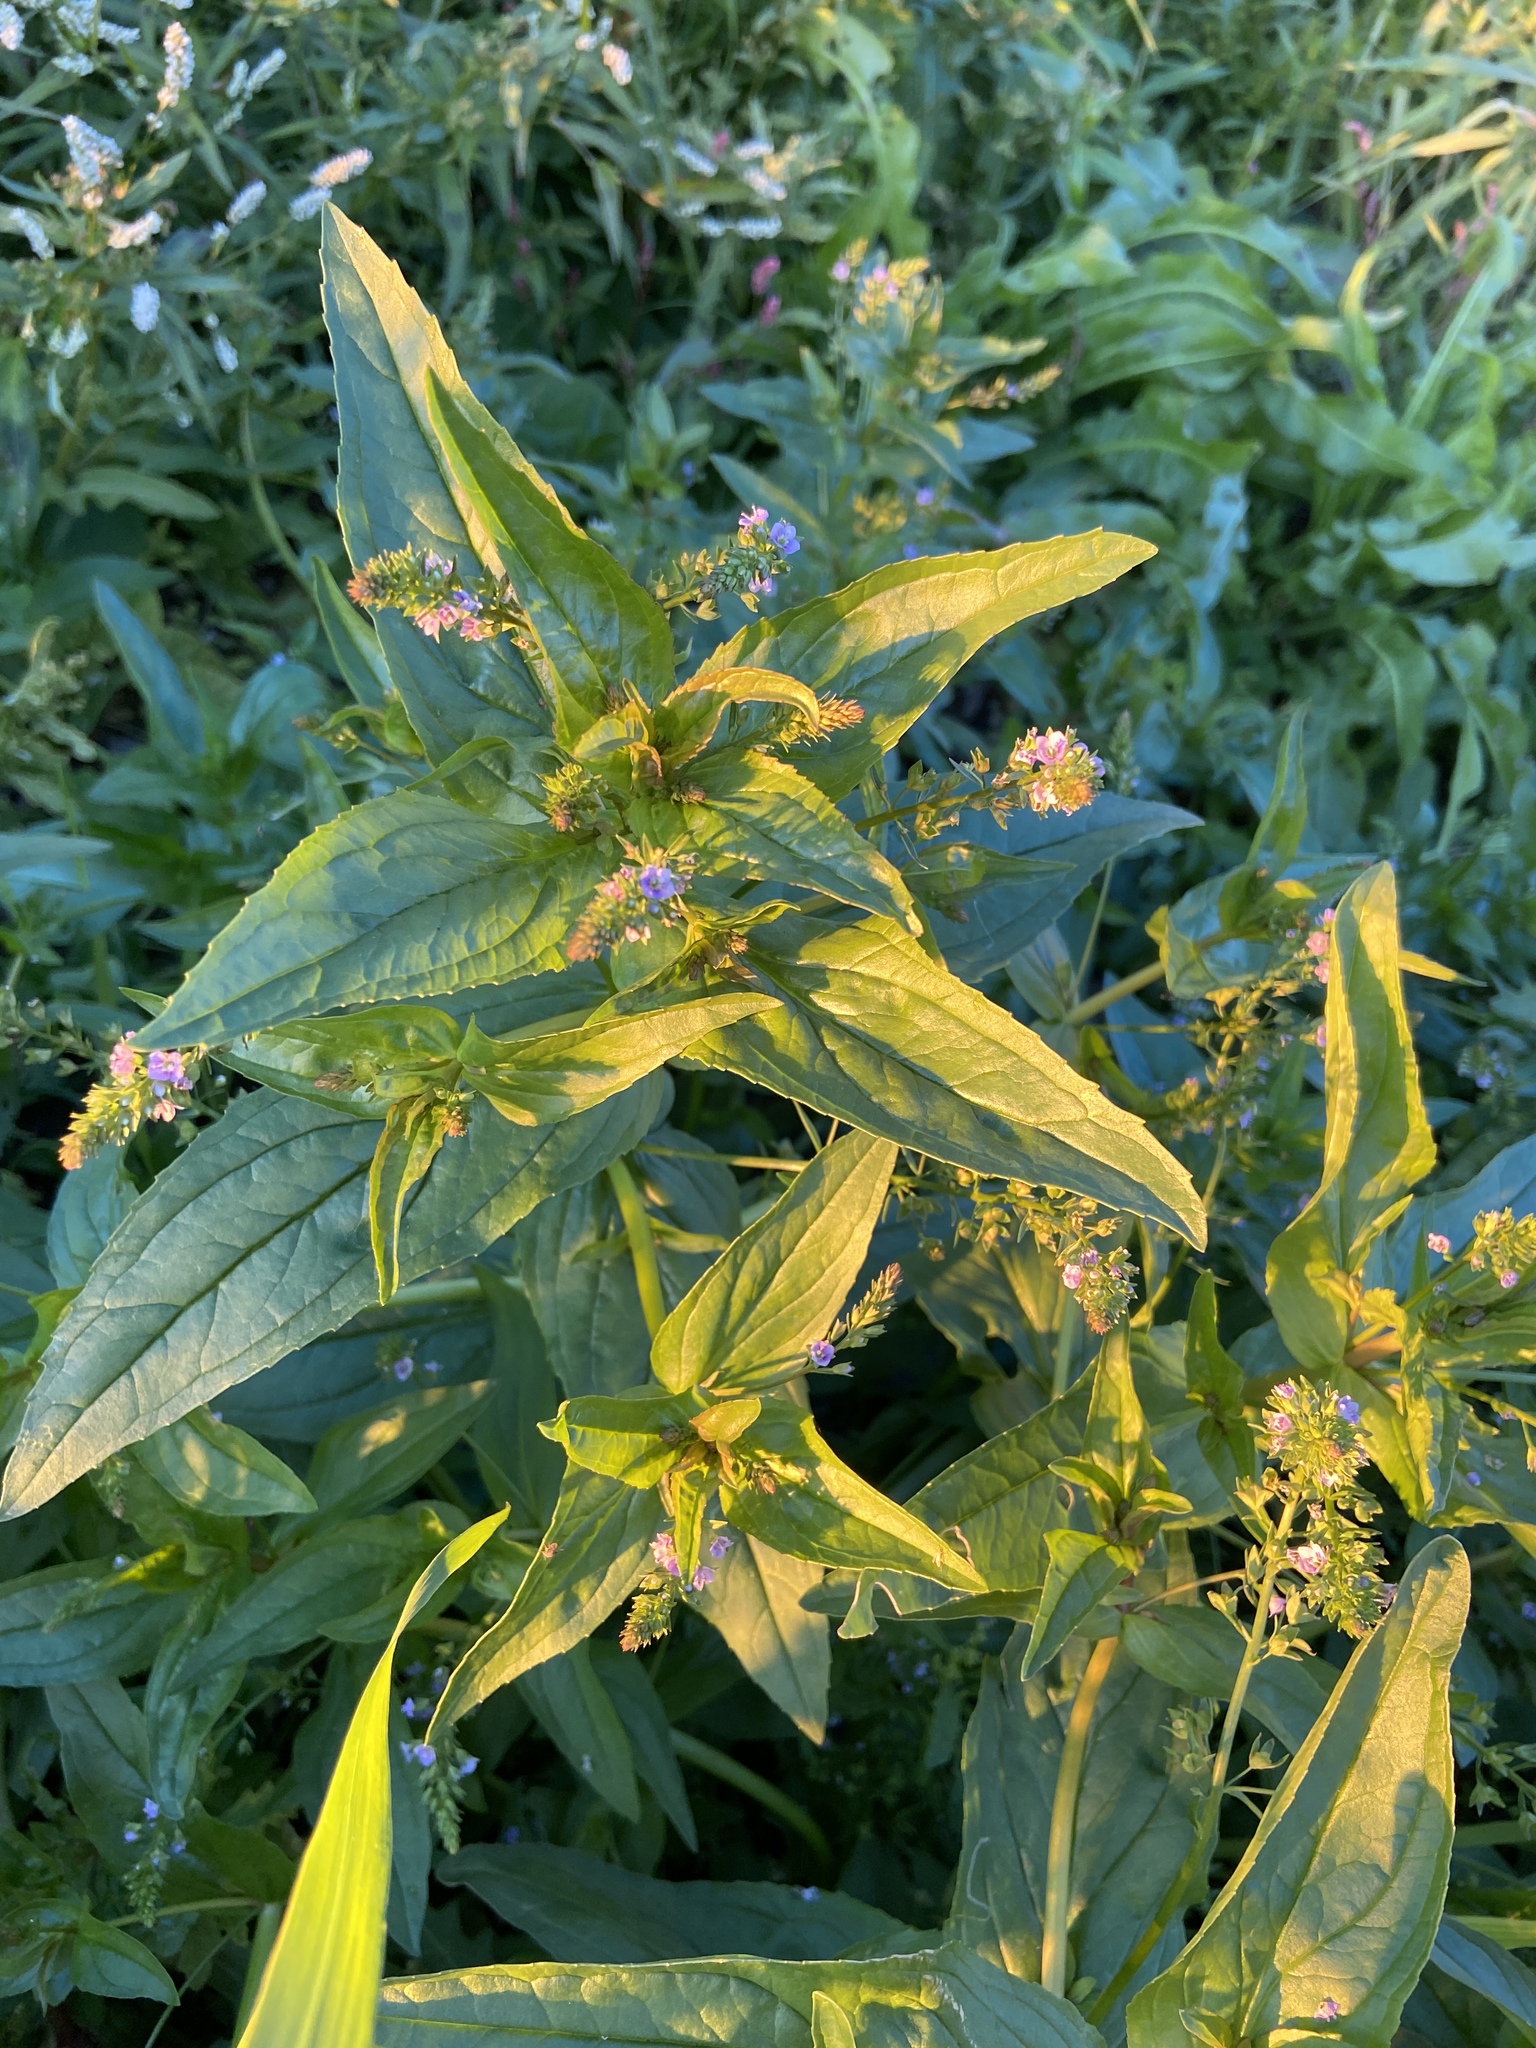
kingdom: Plantae
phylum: Tracheophyta
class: Magnoliopsida
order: Lamiales
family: Plantaginaceae
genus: Veronica
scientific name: Veronica anagallis-aquatica
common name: Water speedwell
